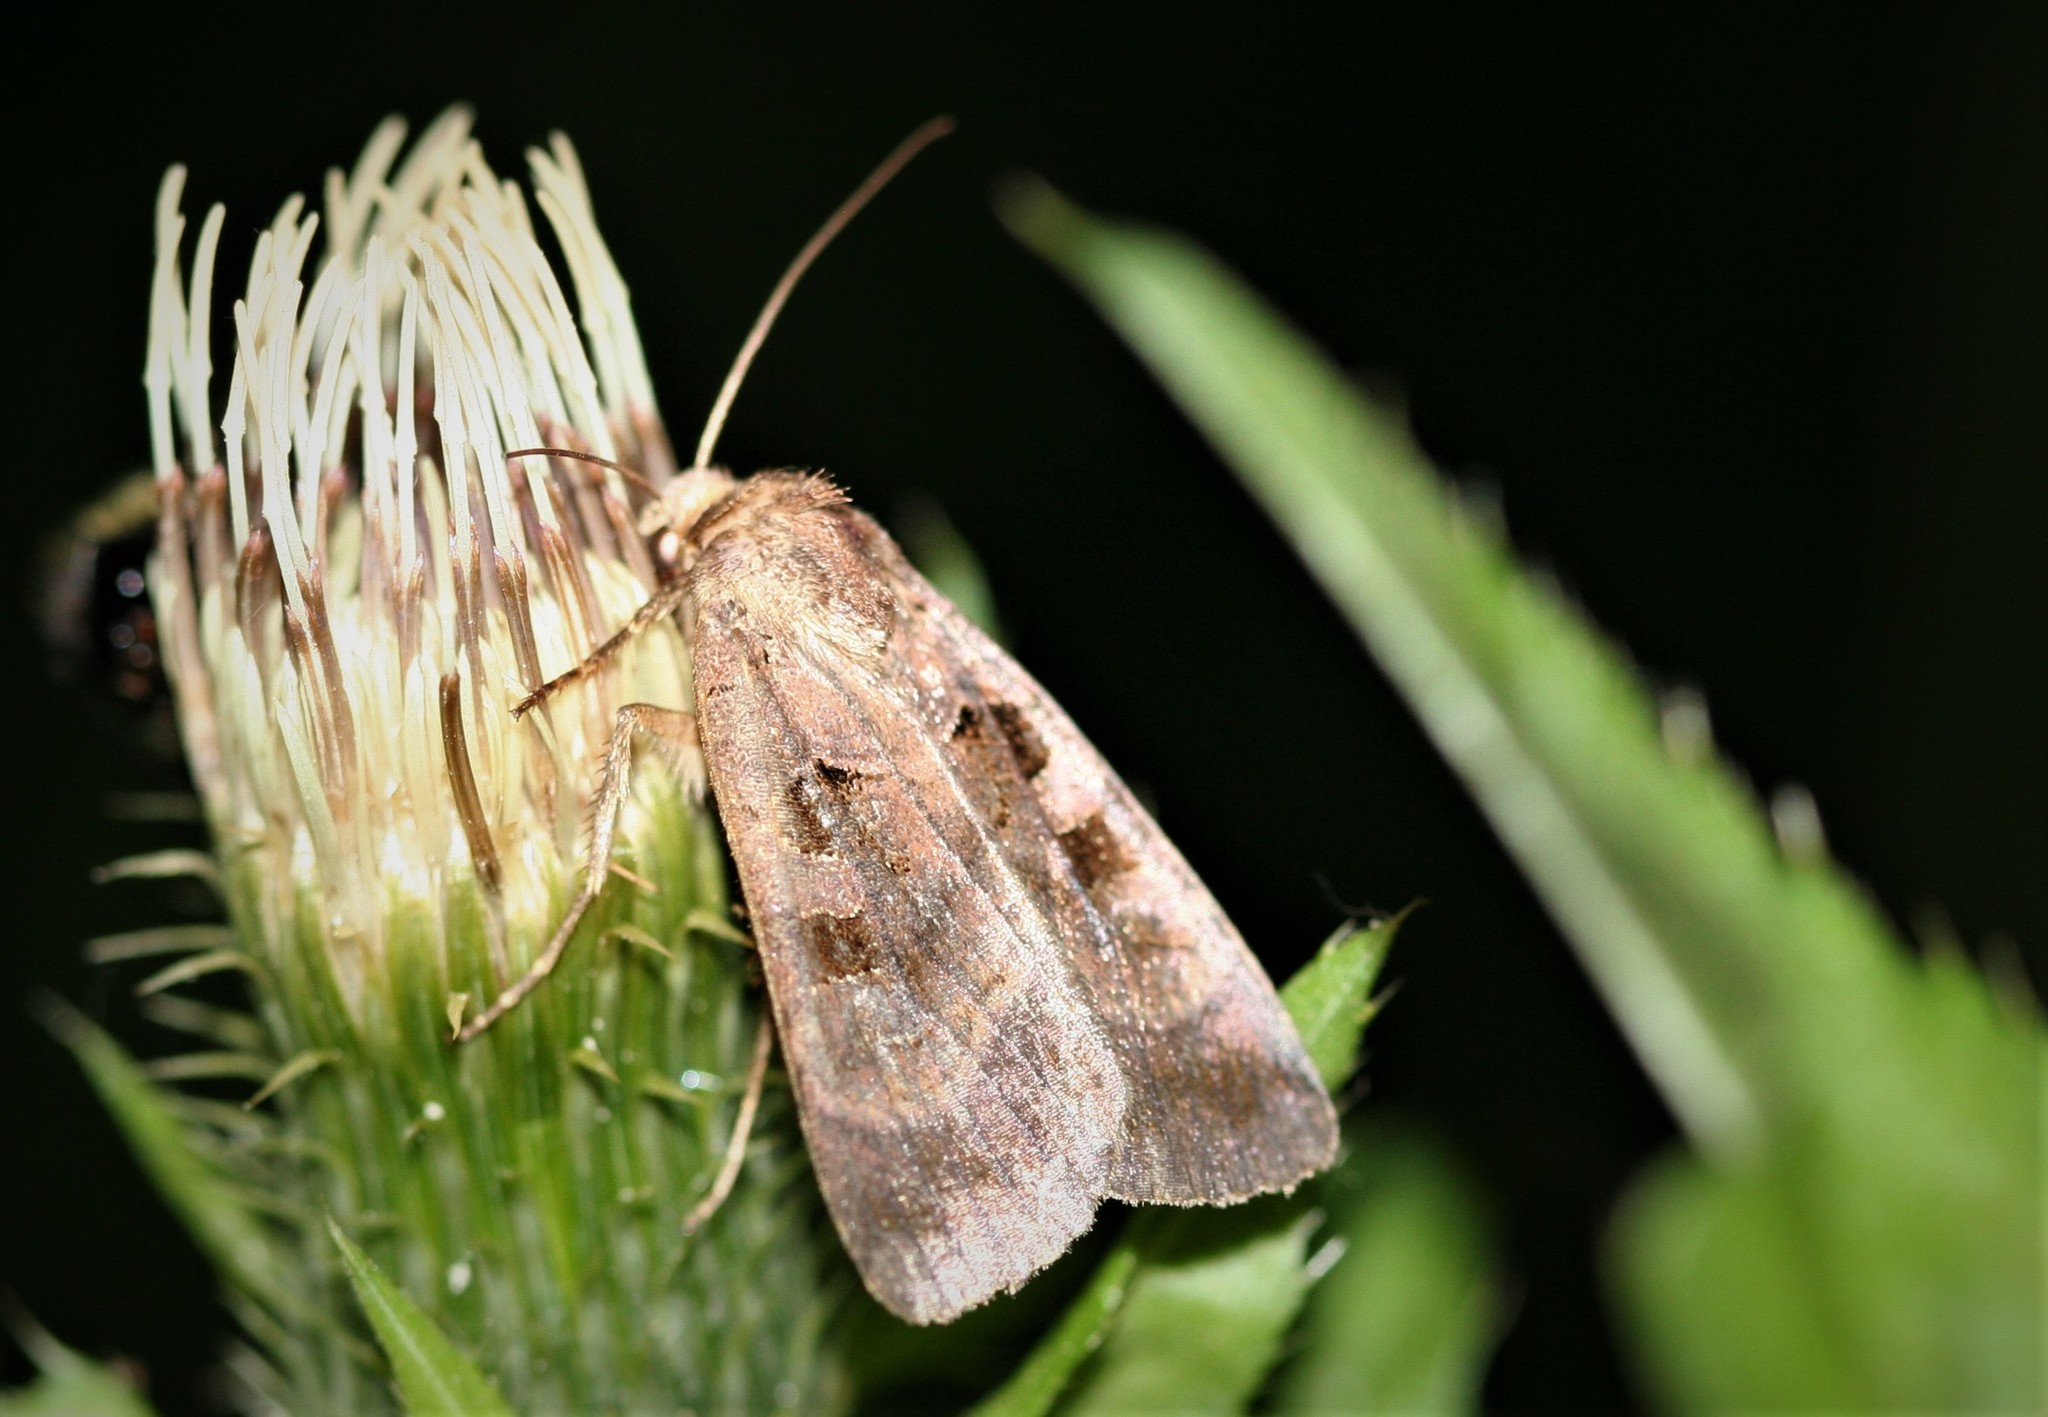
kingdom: Animalia
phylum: Arthropoda
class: Insecta
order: Lepidoptera
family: Noctuidae
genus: Xestia
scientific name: Xestia stigmatica
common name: Square-spotted clay
